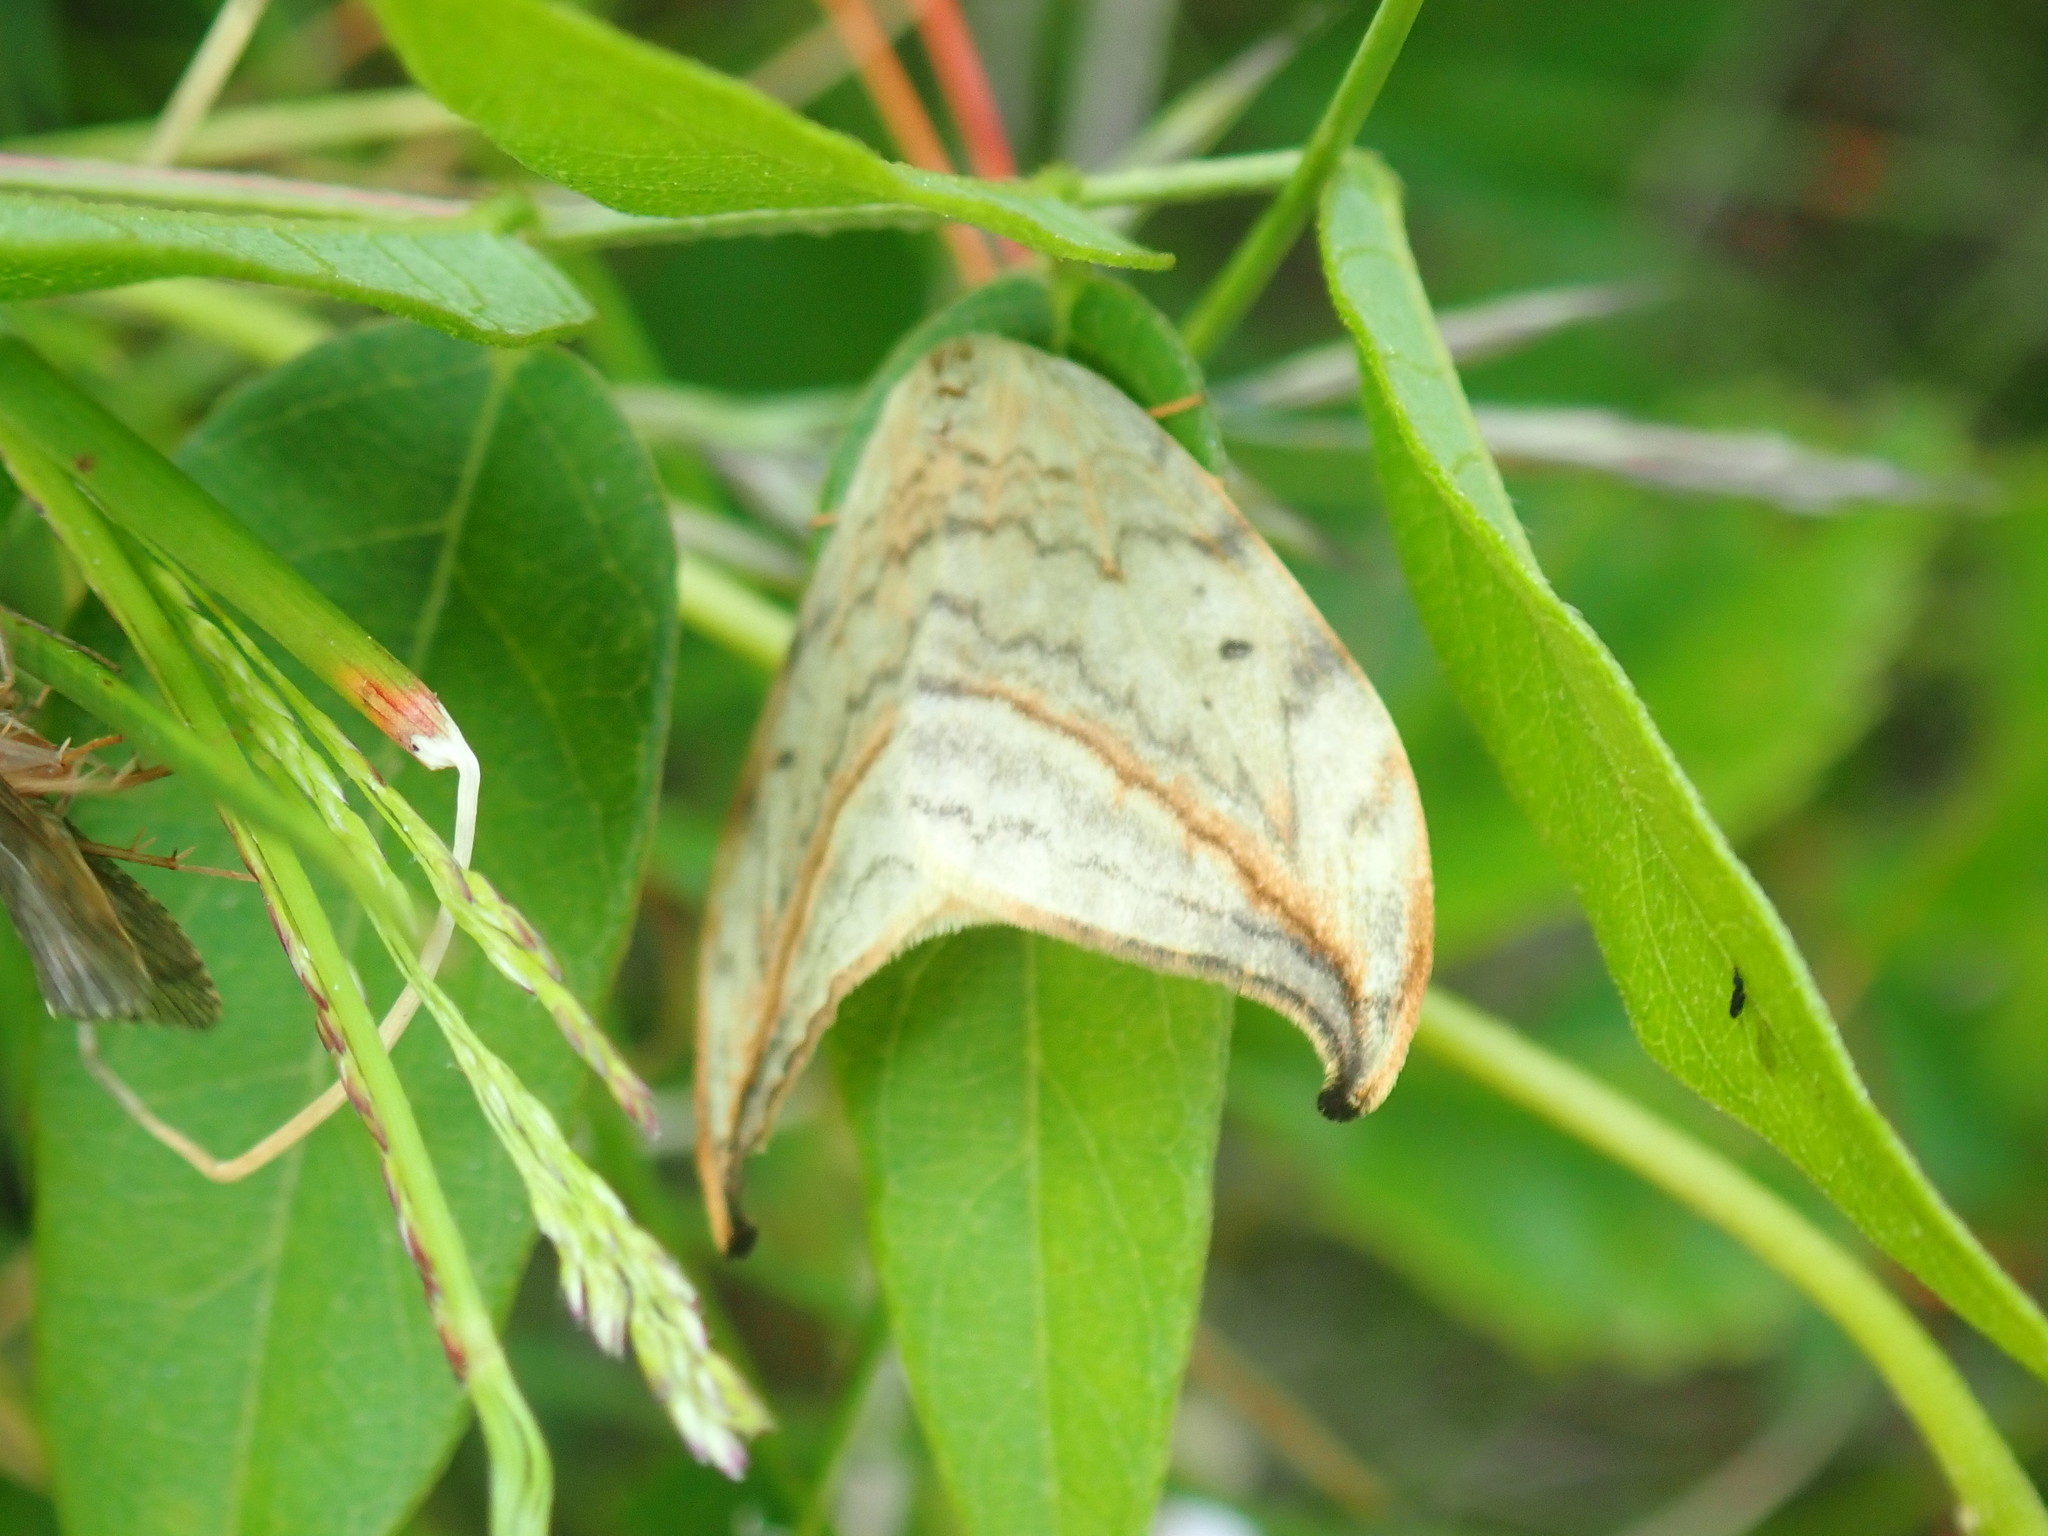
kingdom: Animalia
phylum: Arthropoda
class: Insecta
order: Lepidoptera
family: Drepanidae
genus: Drepana
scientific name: Drepana arcuata
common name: Arched hooktip moth
